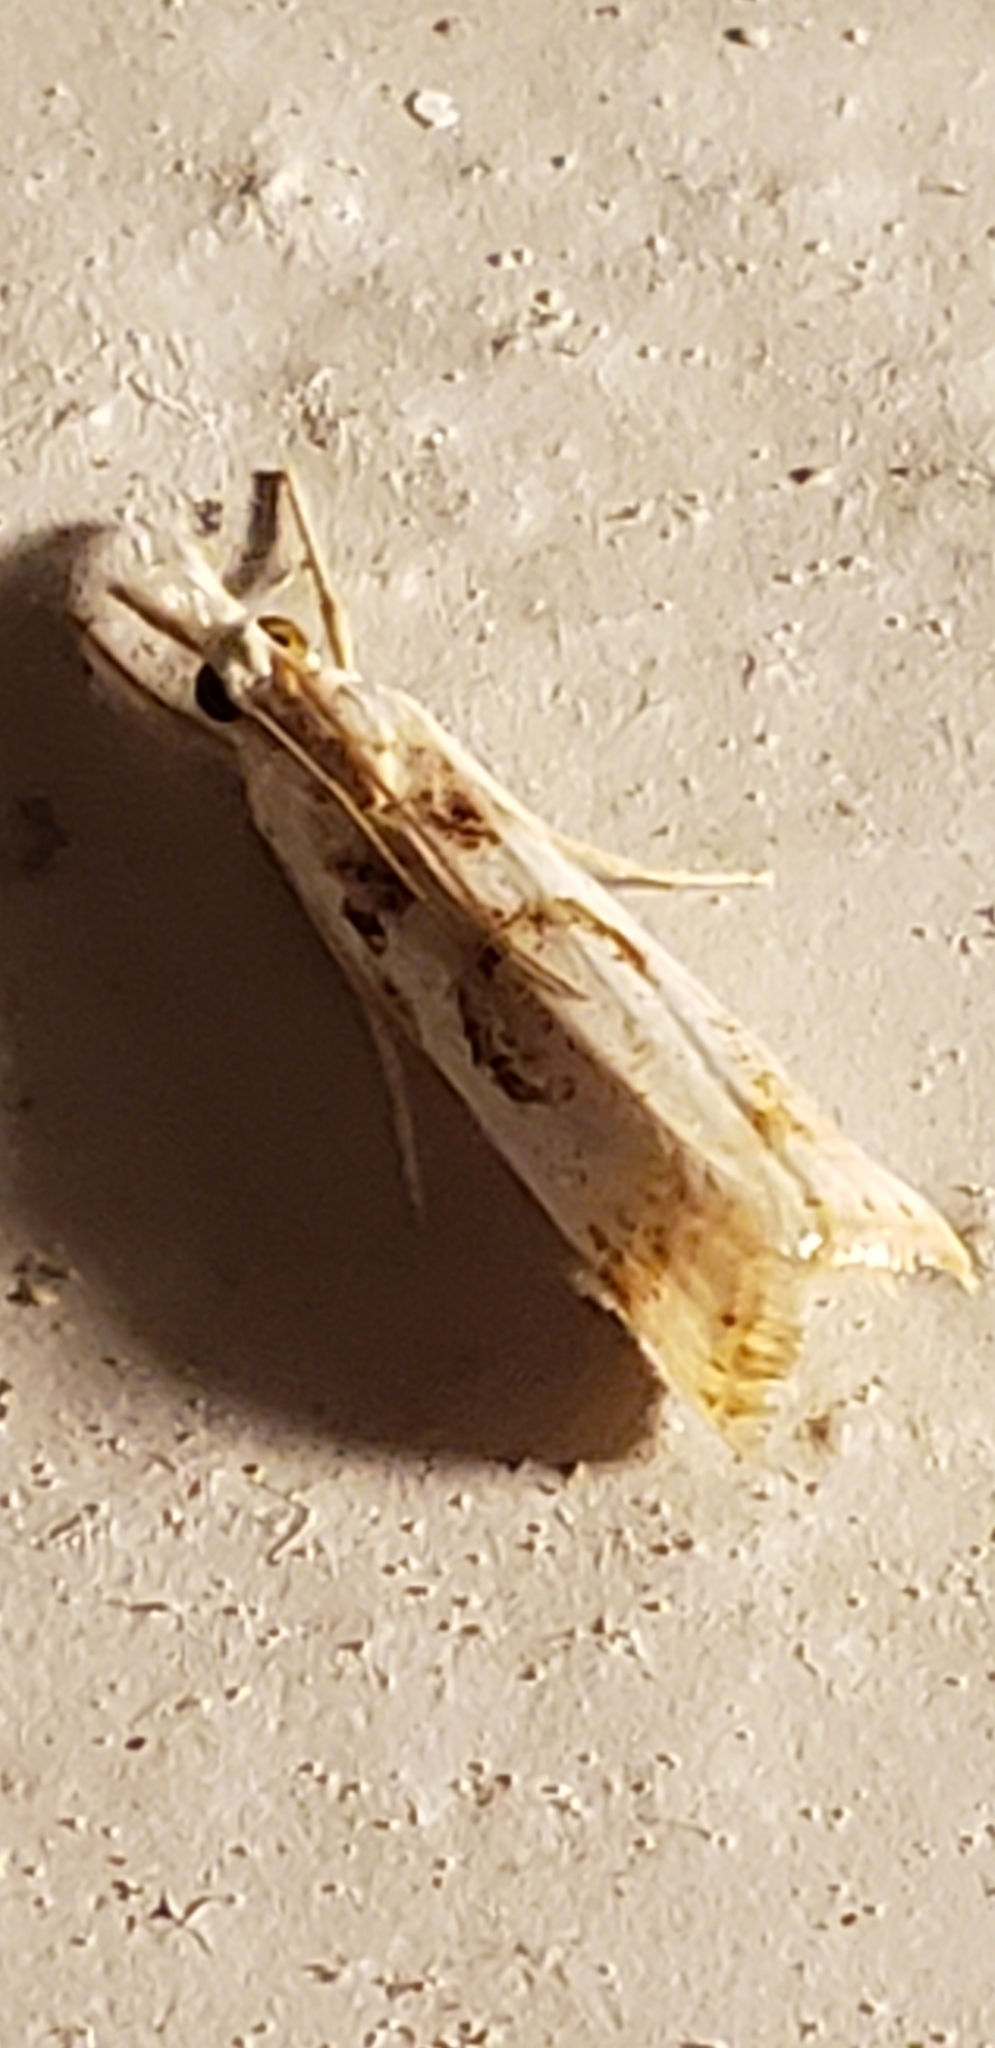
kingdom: Animalia
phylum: Arthropoda
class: Insecta
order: Lepidoptera
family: Crambidae
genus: Microcrambus
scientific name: Microcrambus elegans
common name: Elegant grass-veneer
